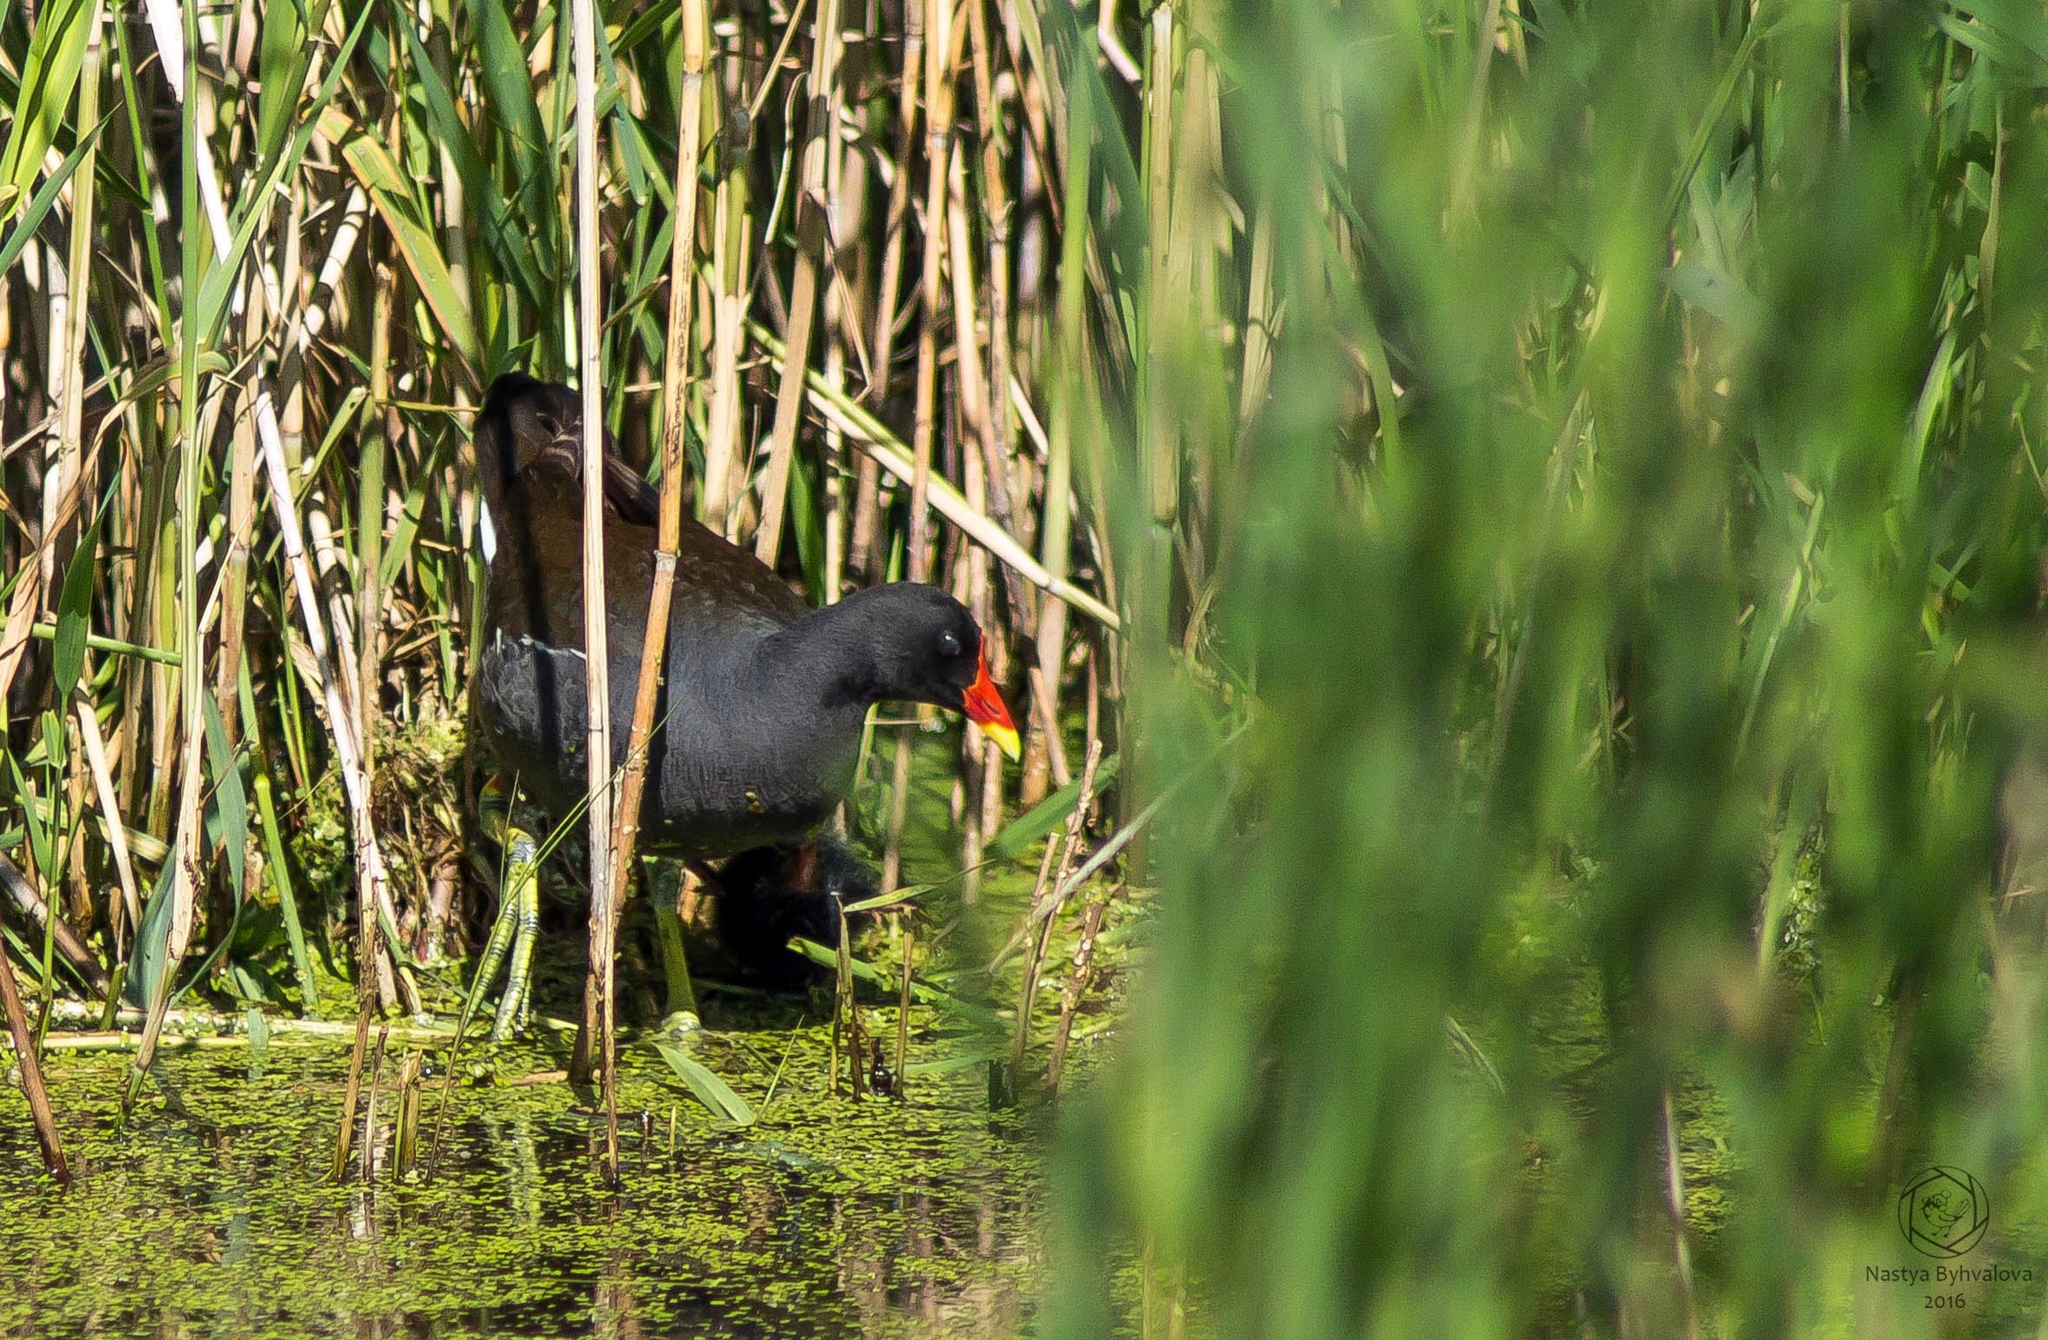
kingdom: Animalia
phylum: Chordata
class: Aves
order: Gruiformes
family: Rallidae
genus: Gallinula
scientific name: Gallinula chloropus
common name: Common moorhen
